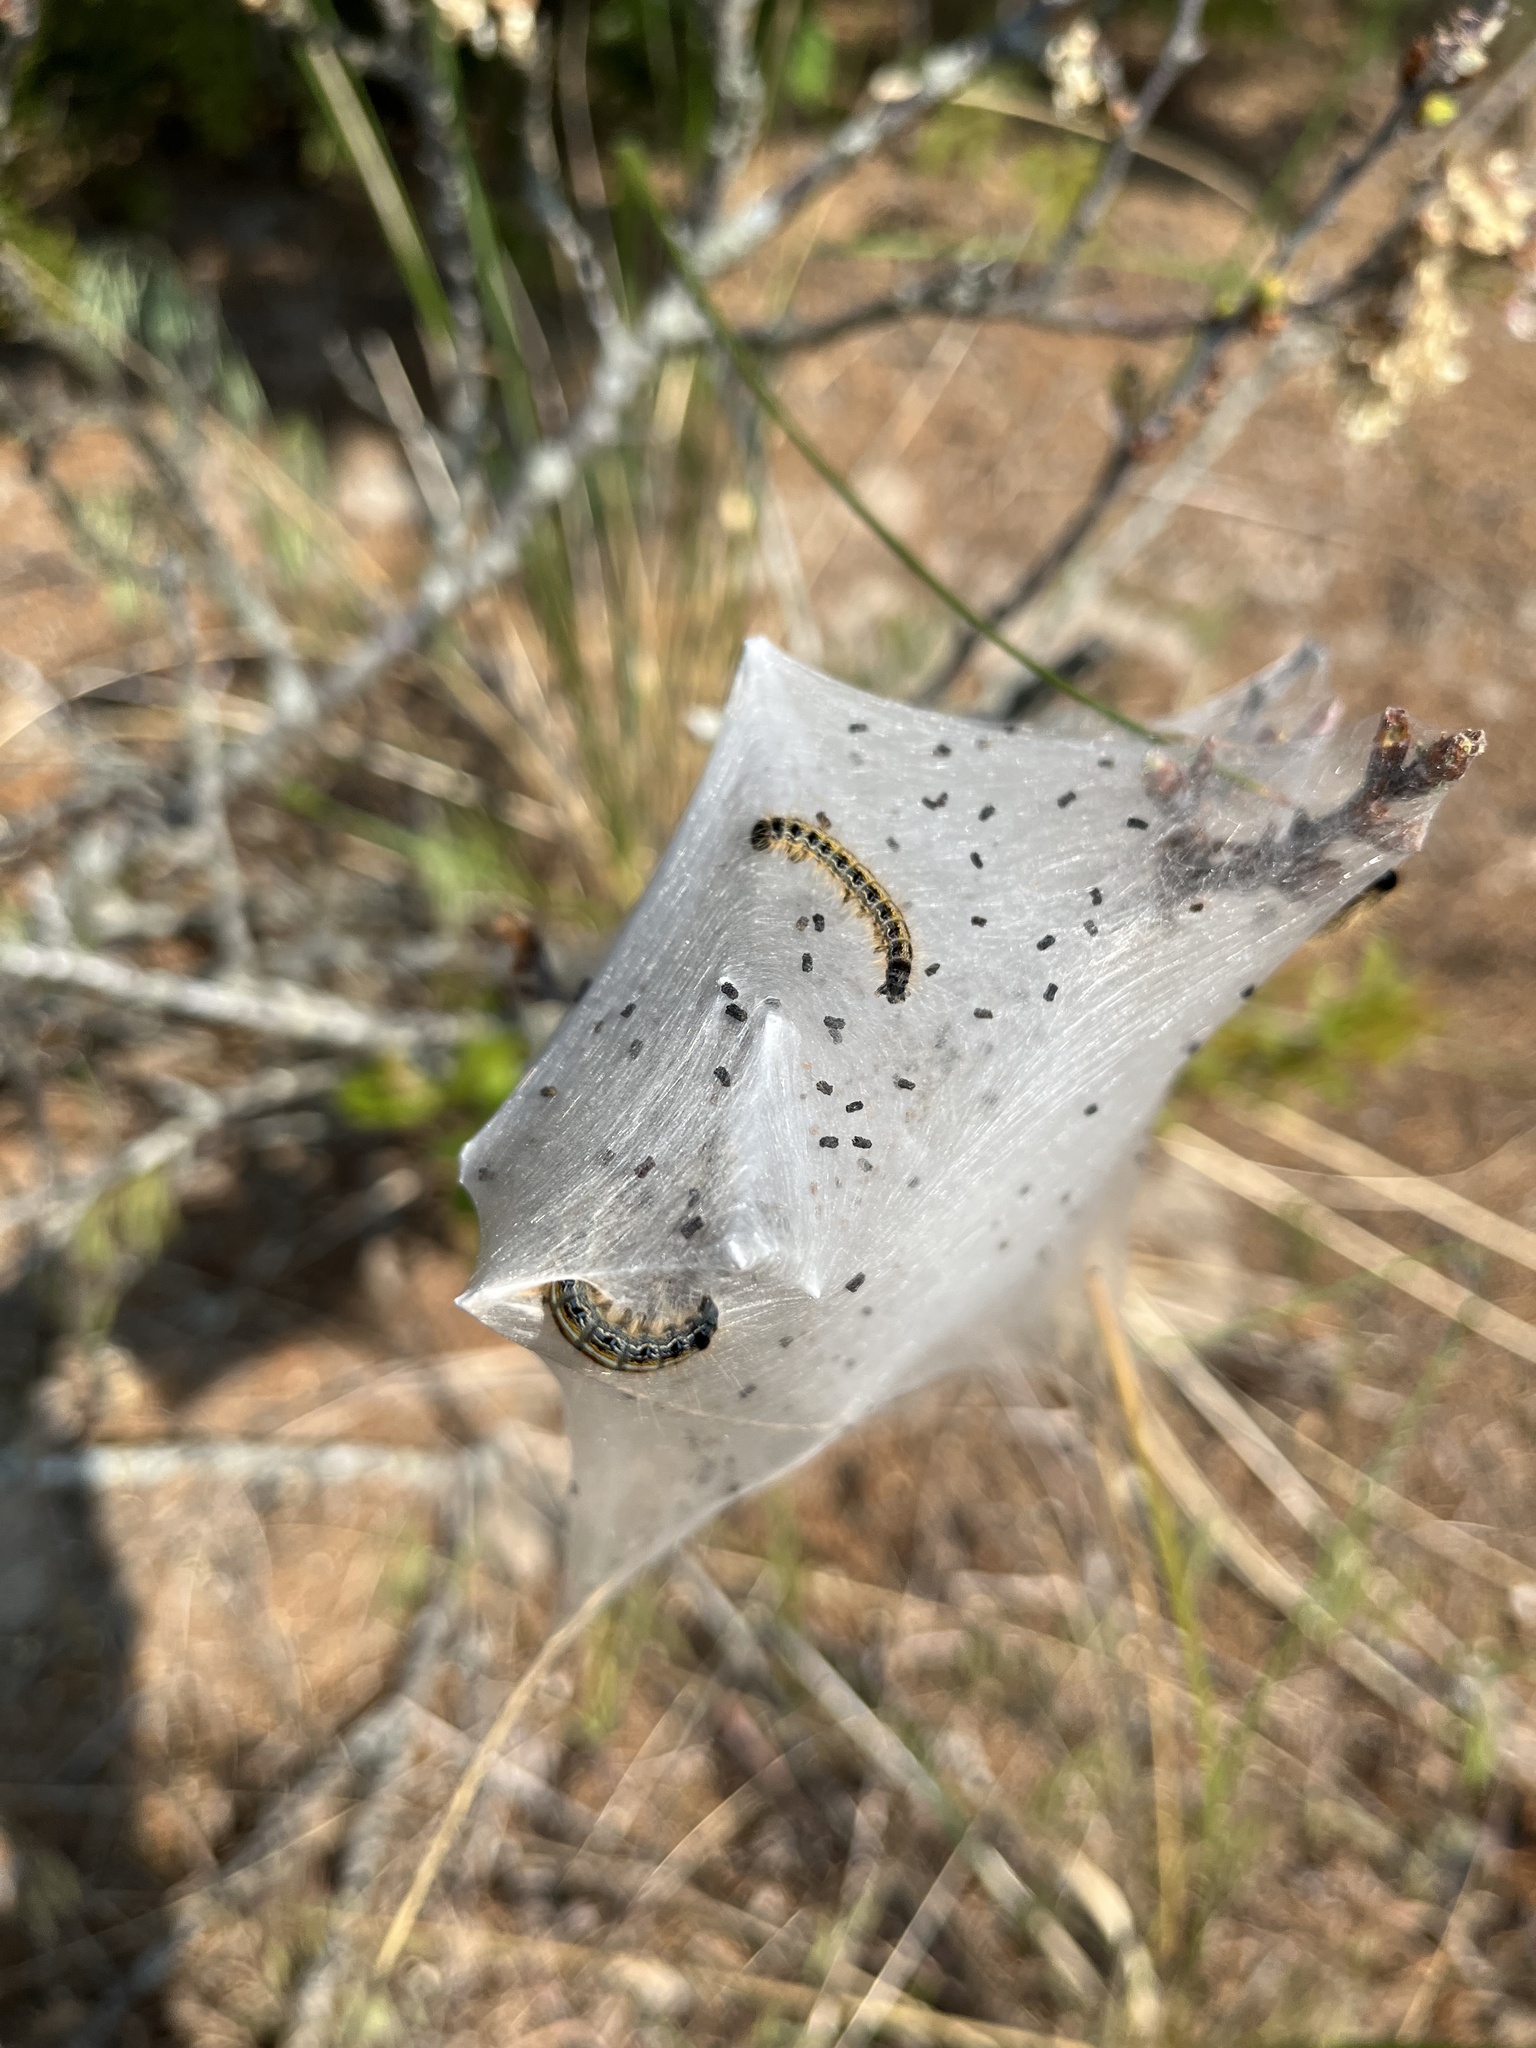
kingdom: Animalia
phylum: Arthropoda
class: Insecta
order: Lepidoptera
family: Lasiocampidae
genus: Malacosoma
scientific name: Malacosoma americana
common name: Eastern tent caterpillar moth
